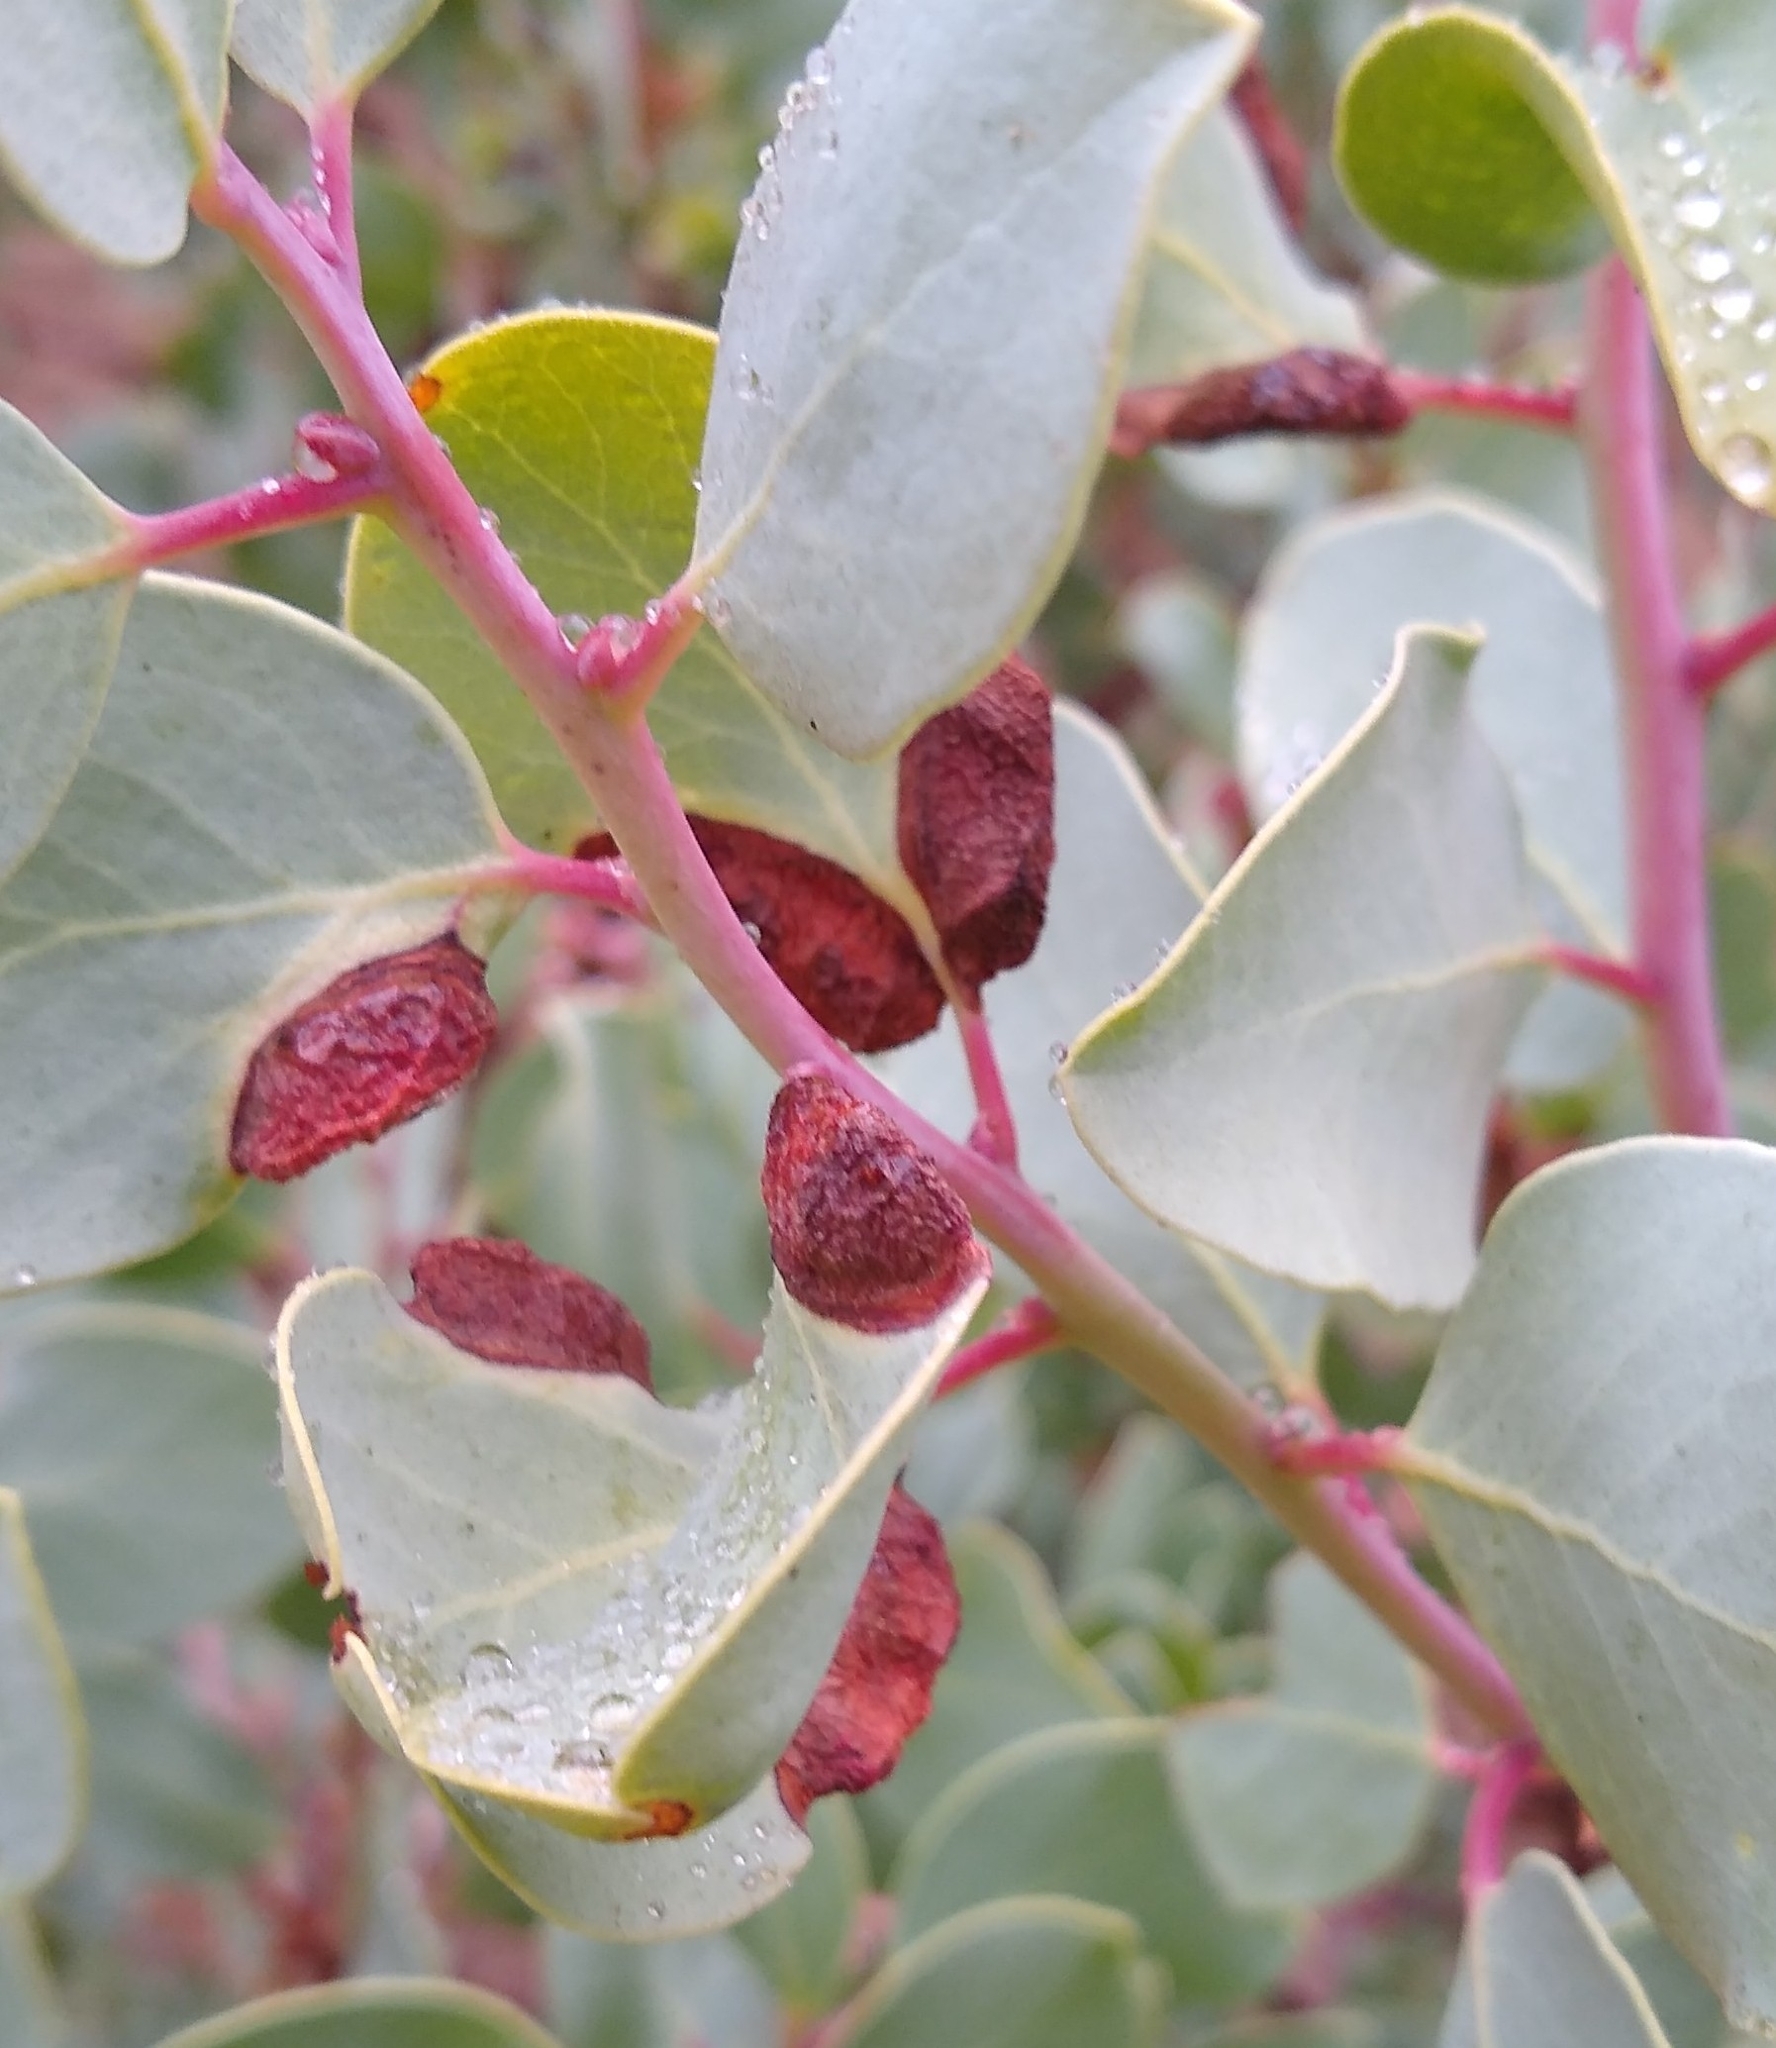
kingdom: Animalia
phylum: Arthropoda
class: Insecta
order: Hemiptera
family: Aphididae
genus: Tamalia
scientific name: Tamalia
